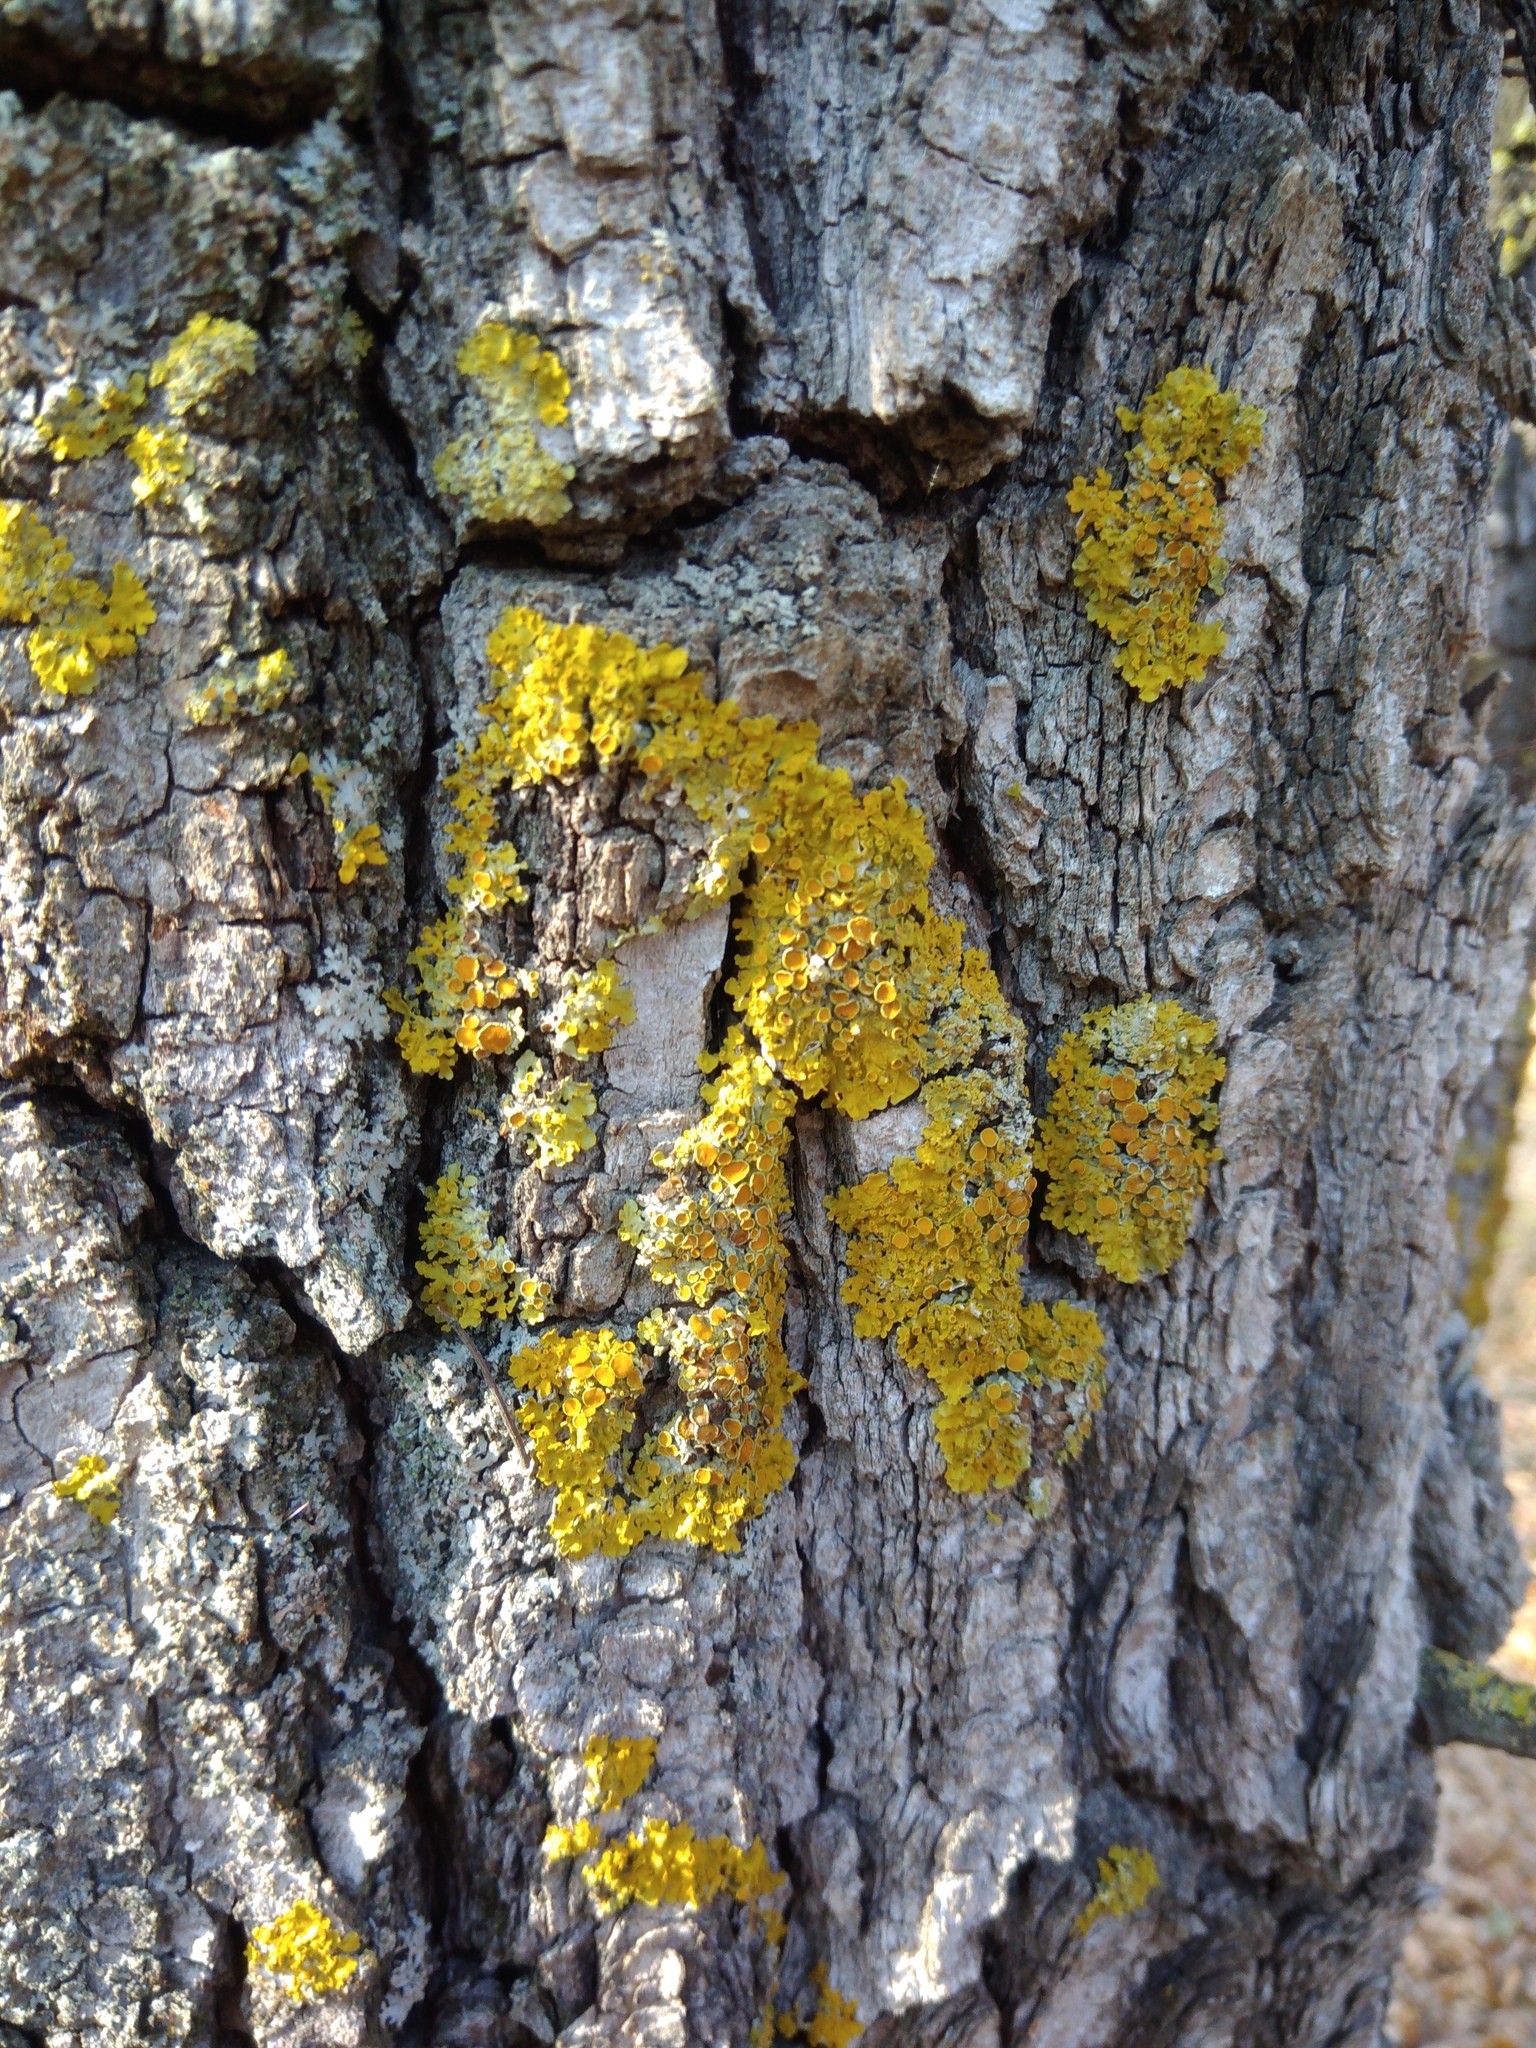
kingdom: Fungi
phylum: Ascomycota
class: Lecanoromycetes
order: Teloschistales
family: Teloschistaceae
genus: Xanthoria
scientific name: Xanthoria parietina
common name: Common orange lichen
